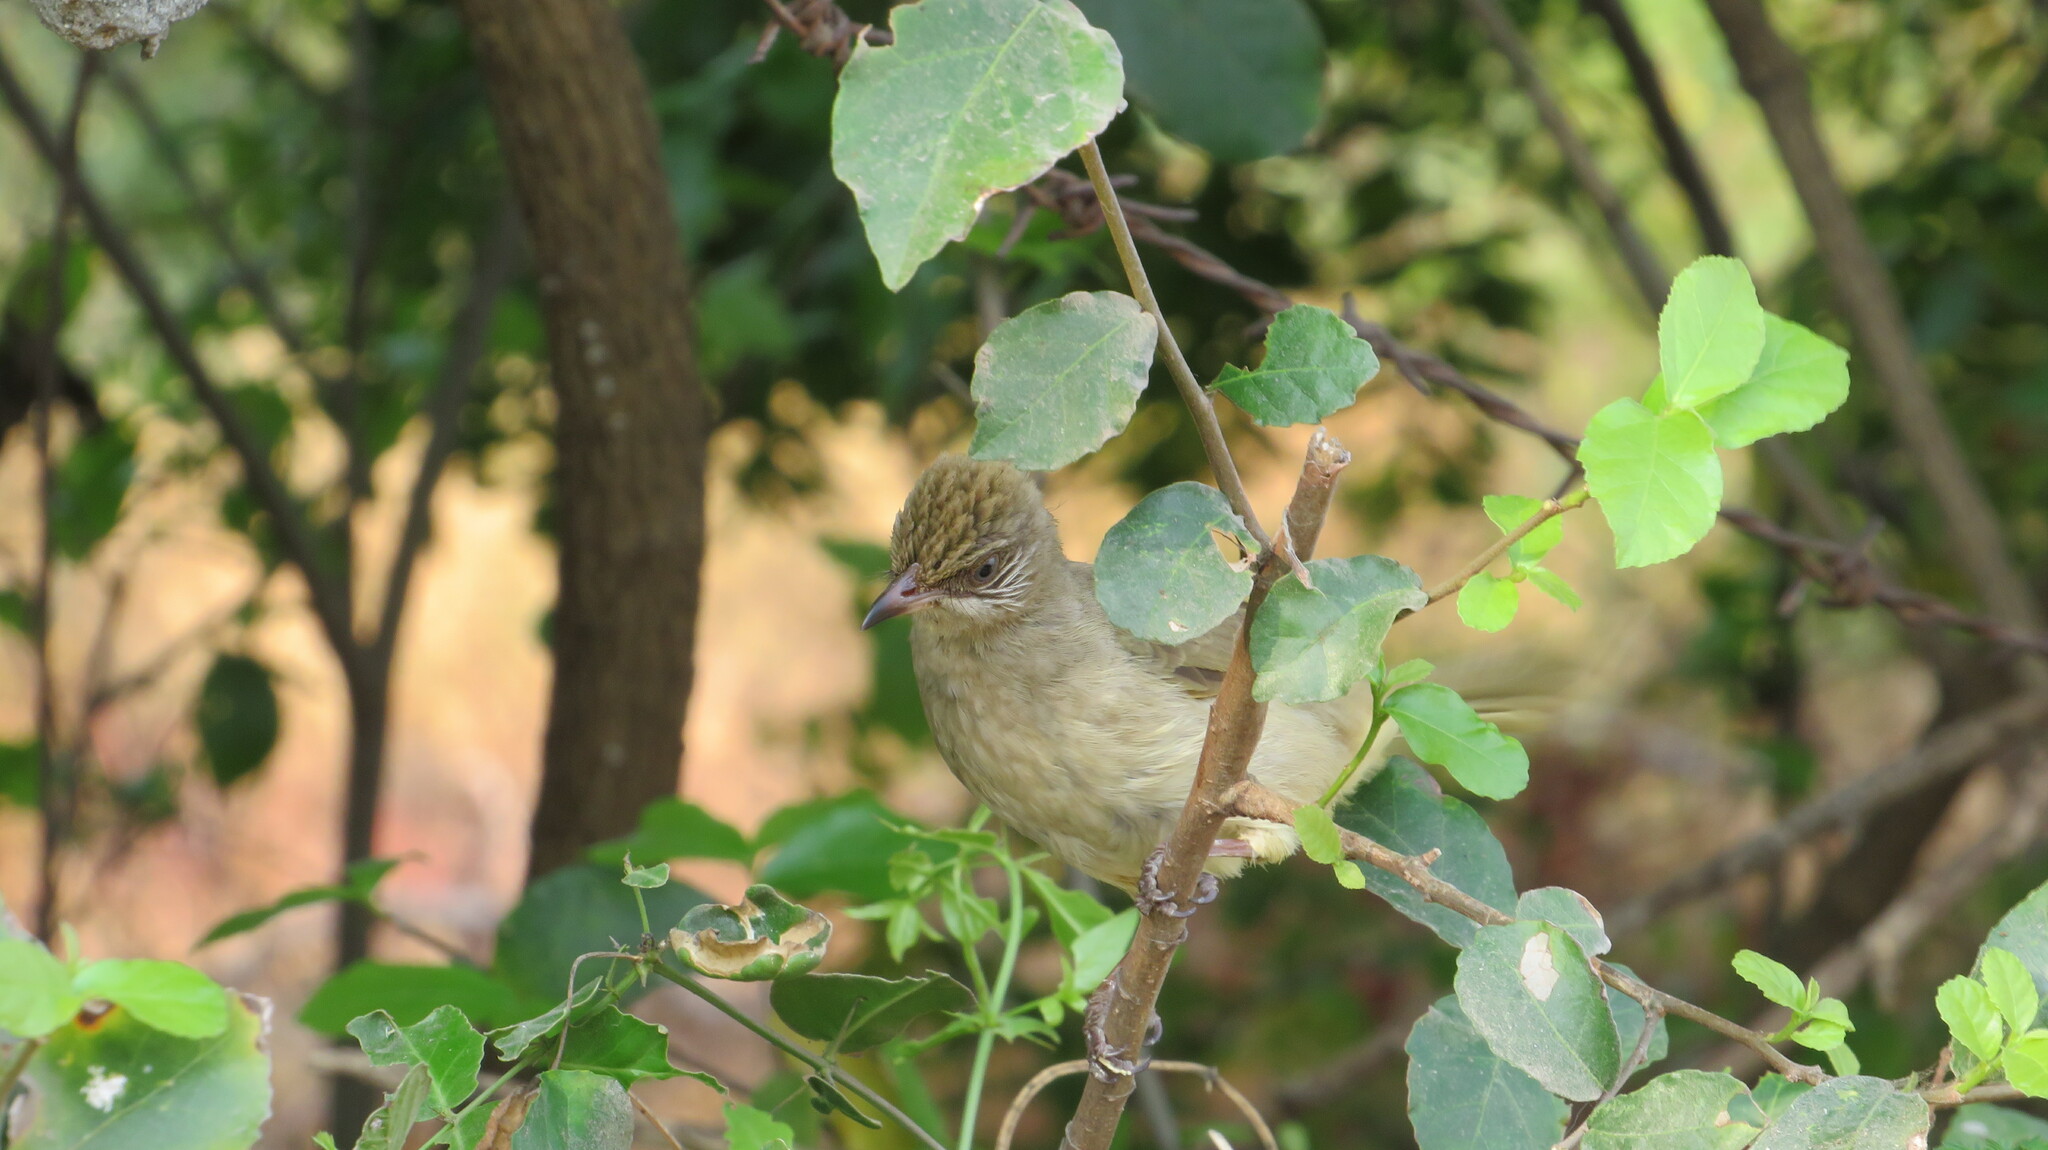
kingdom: Animalia
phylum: Chordata
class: Aves
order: Passeriformes
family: Pycnonotidae
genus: Pycnonotus
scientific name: Pycnonotus blanfordi
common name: Streak-eared bulbul
